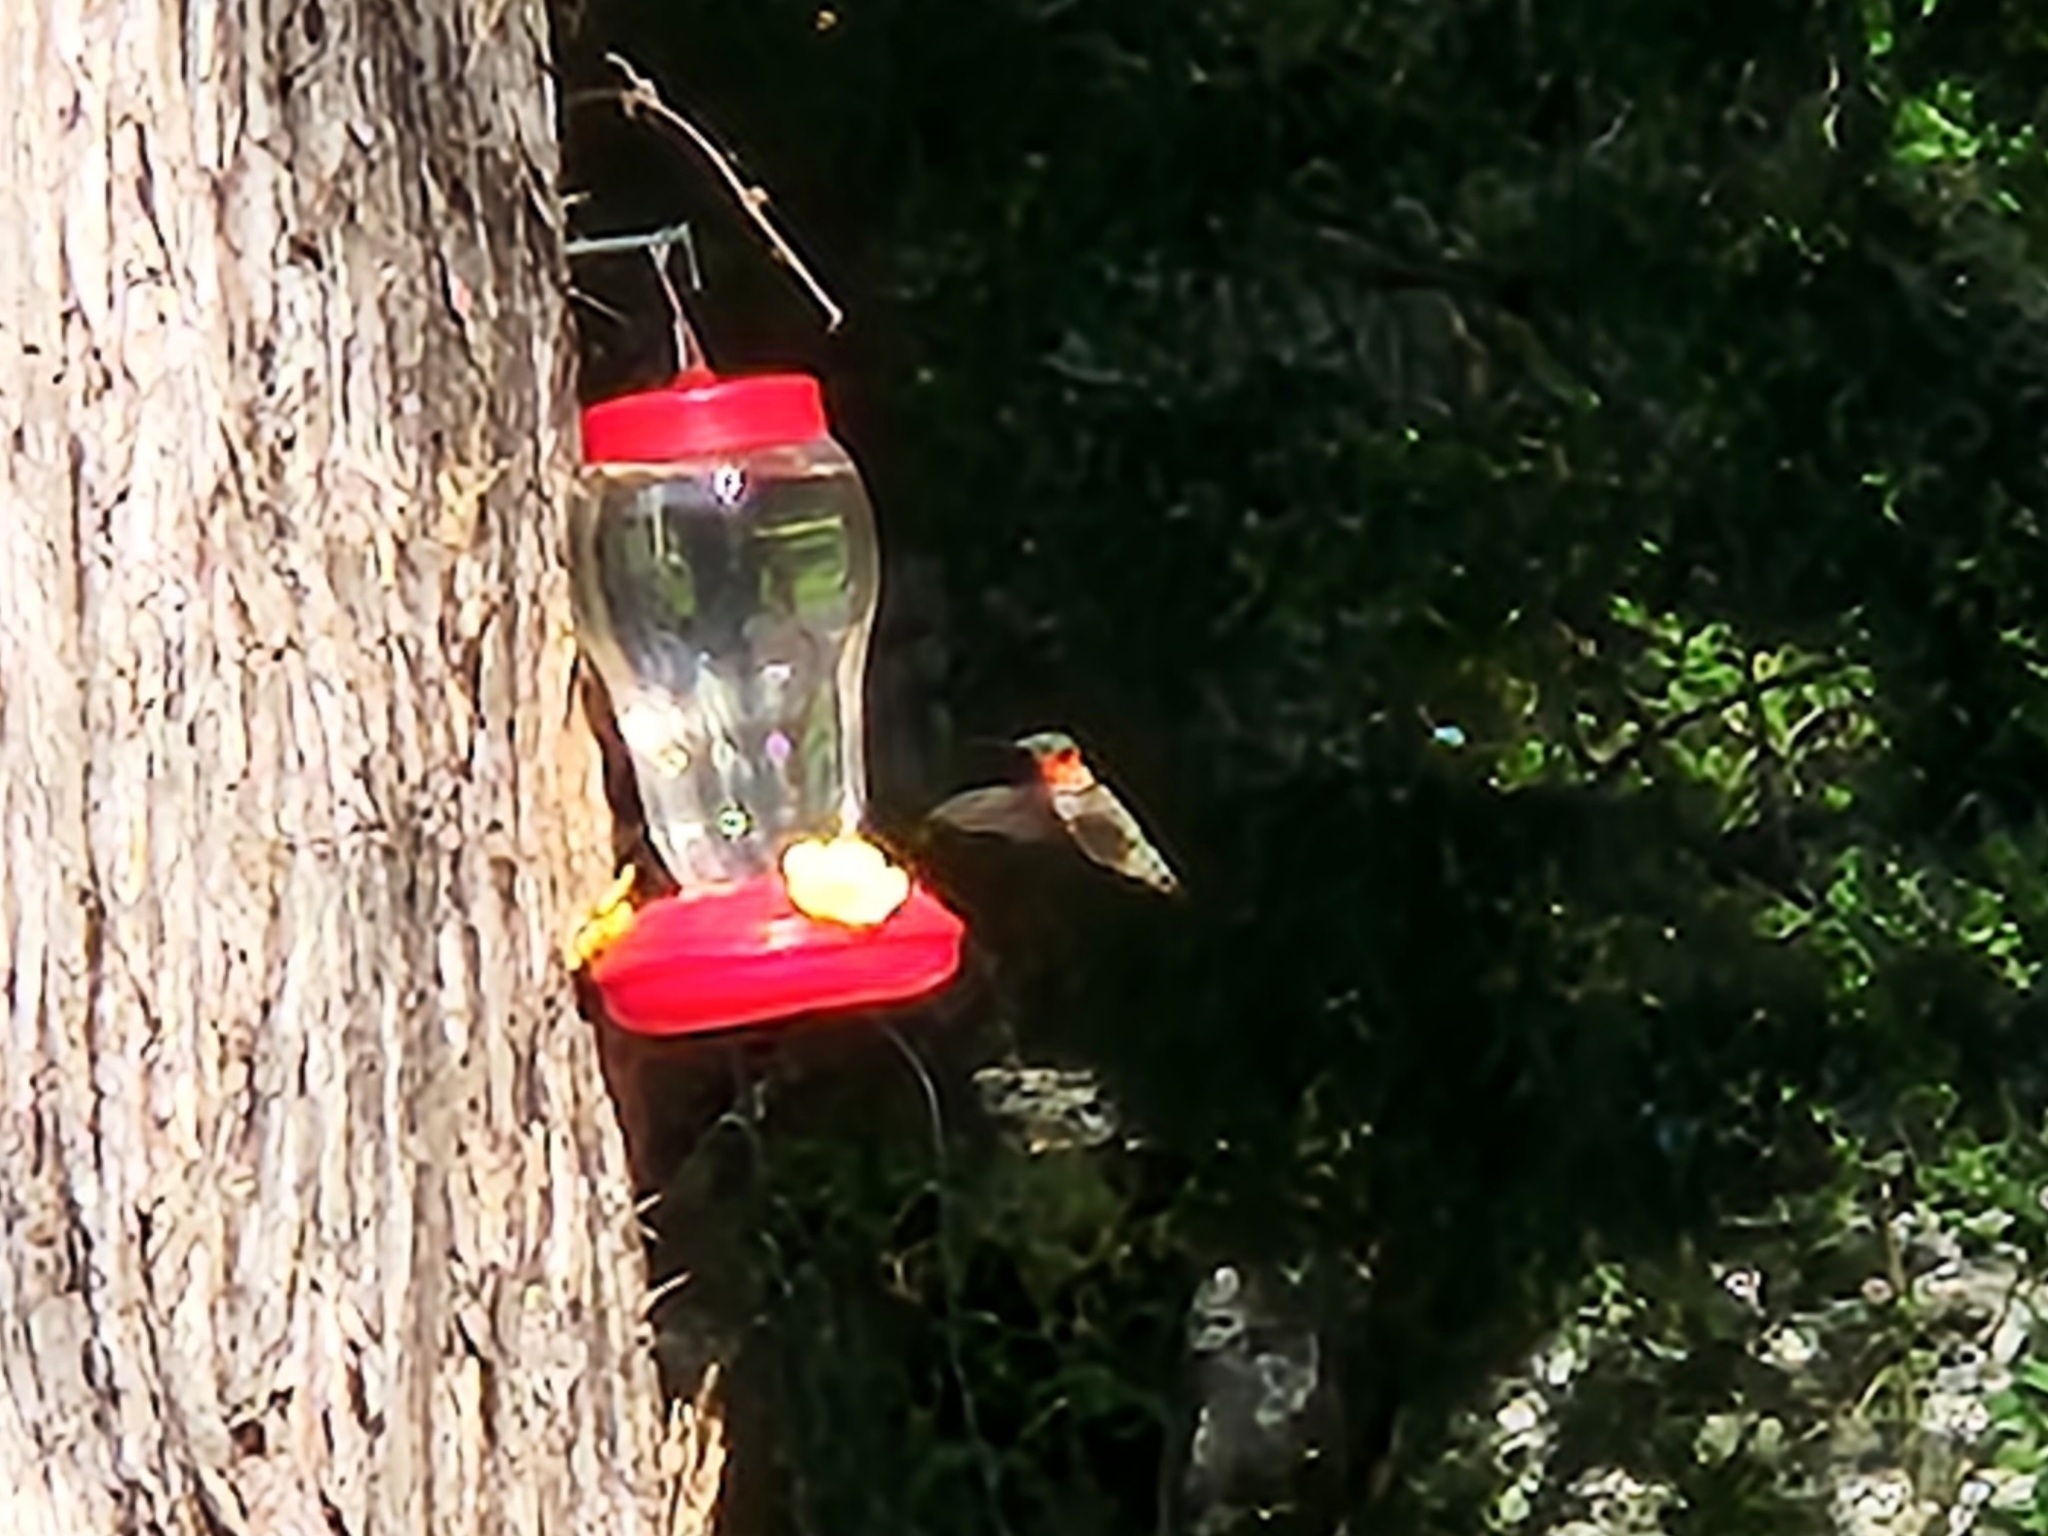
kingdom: Animalia
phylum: Chordata
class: Aves
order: Apodiformes
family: Trochilidae
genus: Archilochus
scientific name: Archilochus colubris
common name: Ruby-throated hummingbird
